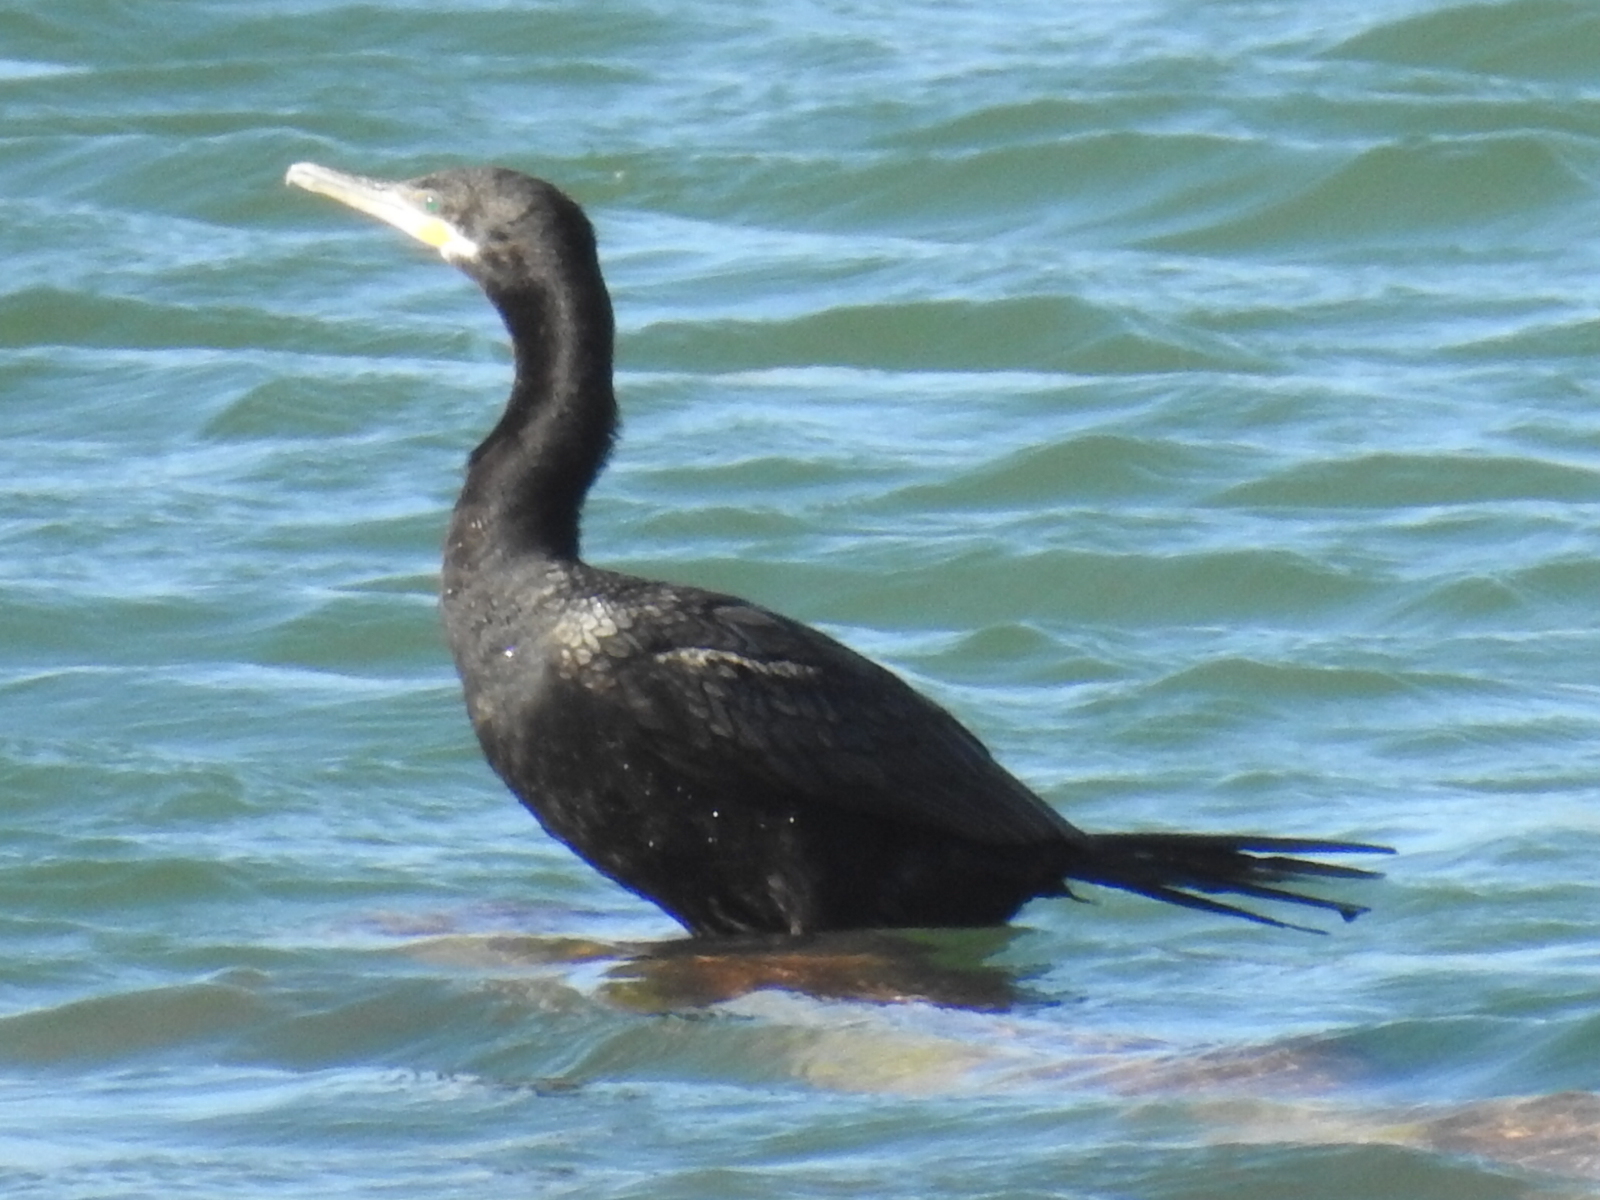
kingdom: Animalia
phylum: Chordata
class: Aves
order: Suliformes
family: Phalacrocoracidae
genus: Phalacrocorax
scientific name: Phalacrocorax brasilianus
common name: Neotropic cormorant
